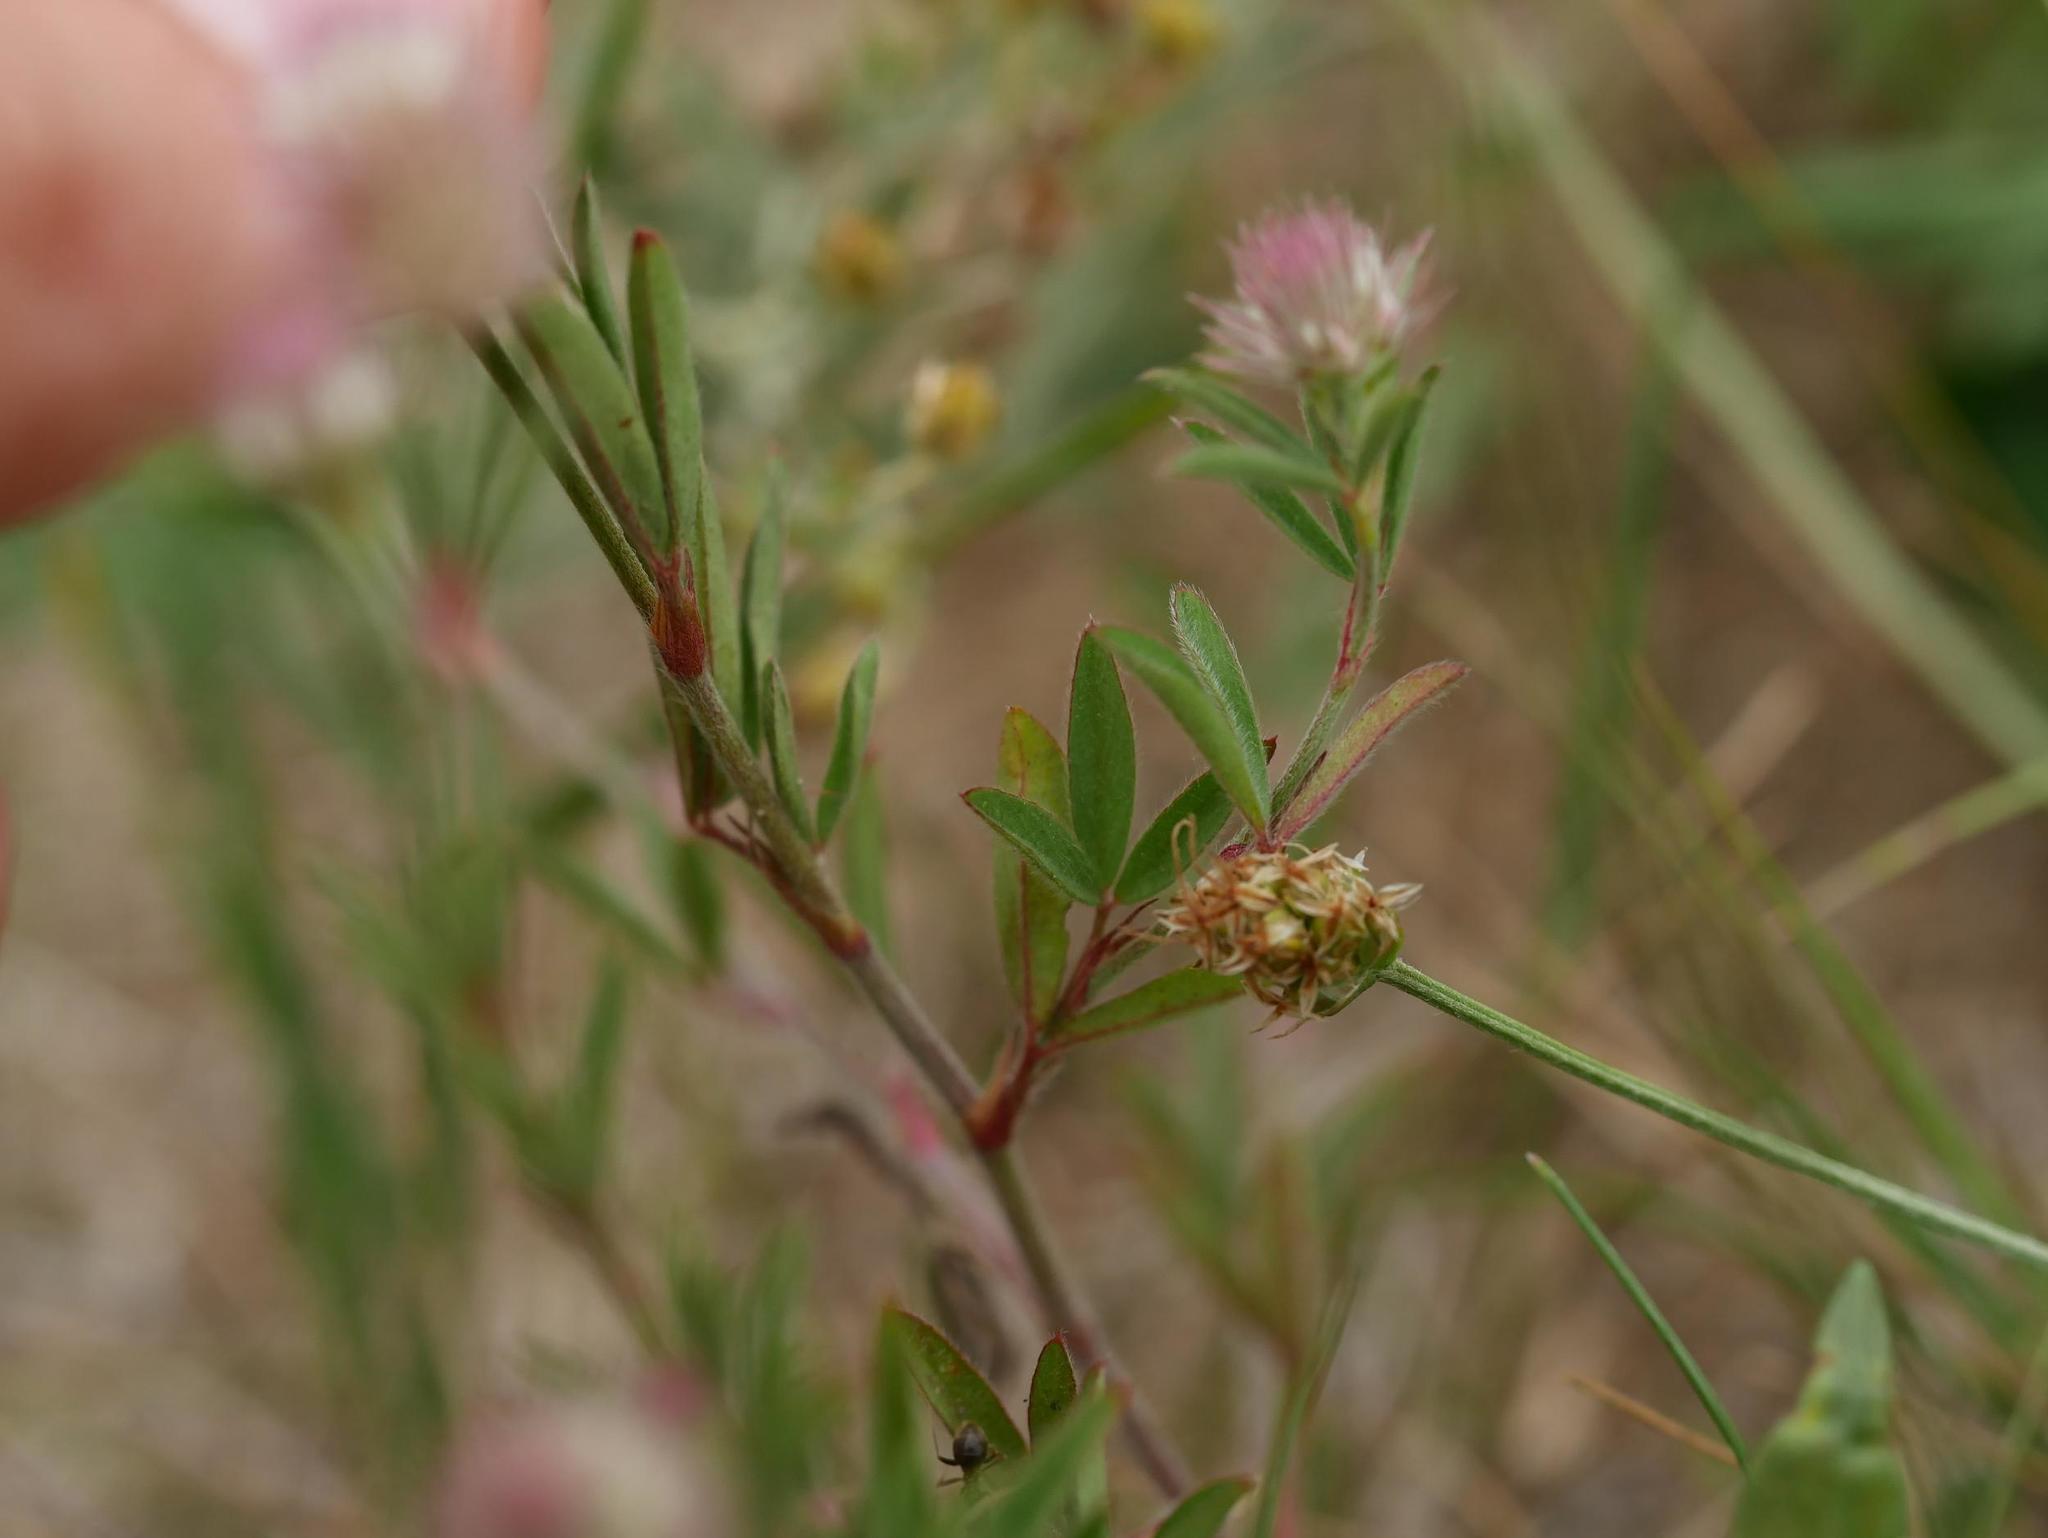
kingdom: Plantae
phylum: Tracheophyta
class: Magnoliopsida
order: Fabales
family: Fabaceae
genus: Trifolium
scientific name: Trifolium arvense
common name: Hare's-foot clover
